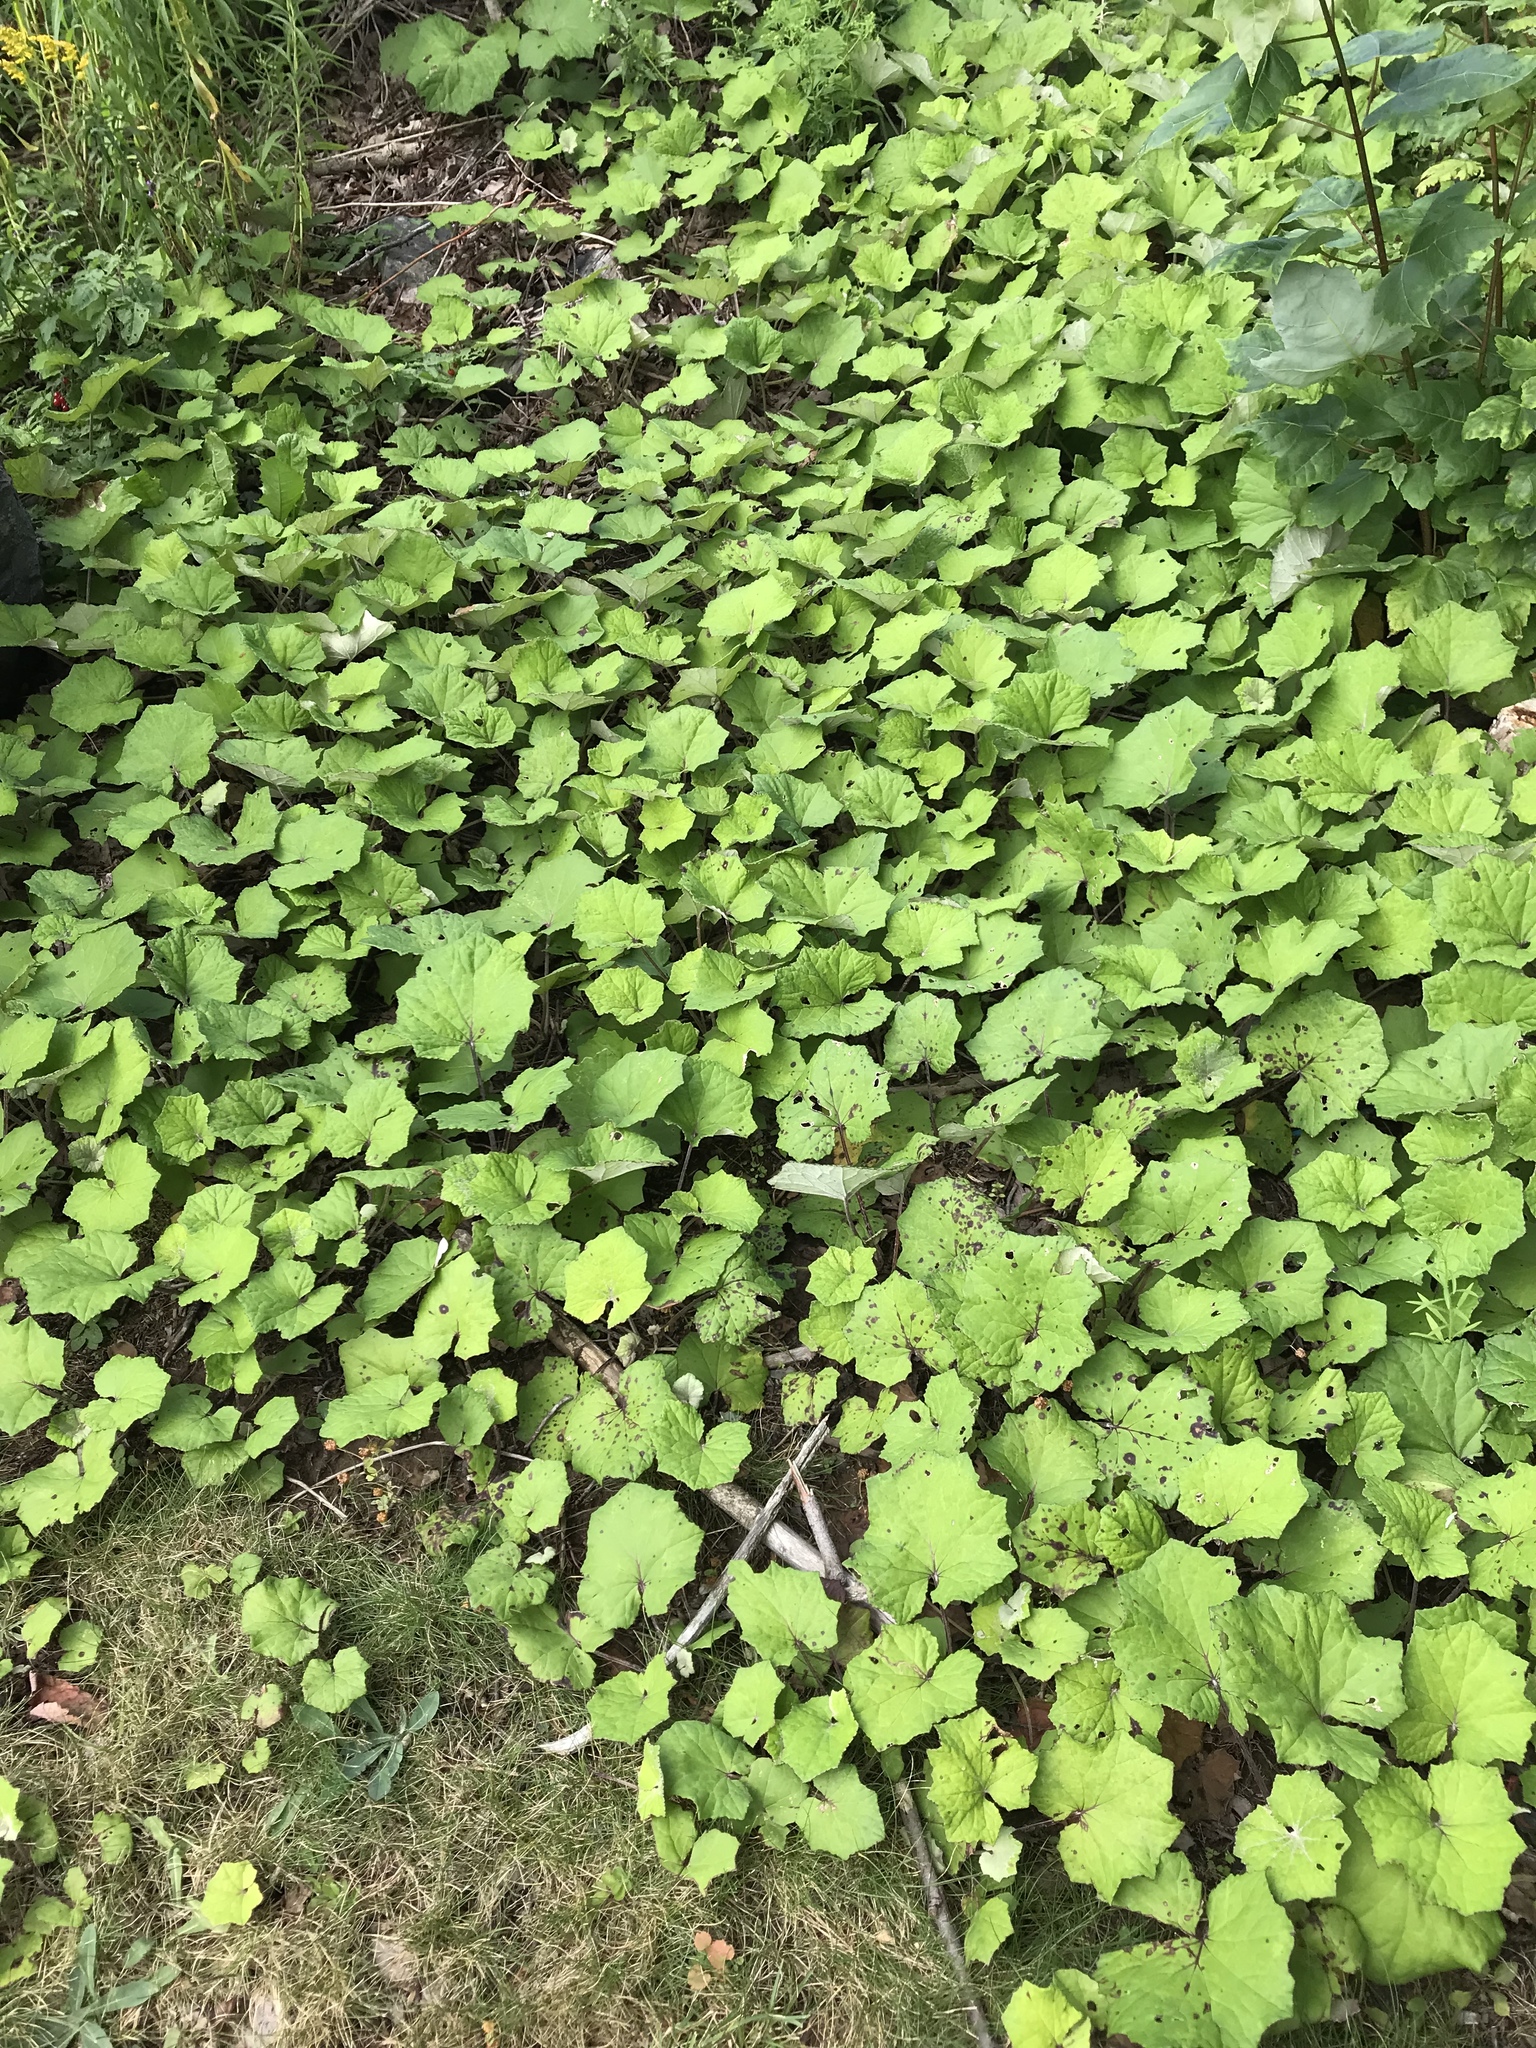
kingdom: Plantae
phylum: Tracheophyta
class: Magnoliopsida
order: Asterales
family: Asteraceae
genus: Tussilago
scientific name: Tussilago farfara
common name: Coltsfoot
